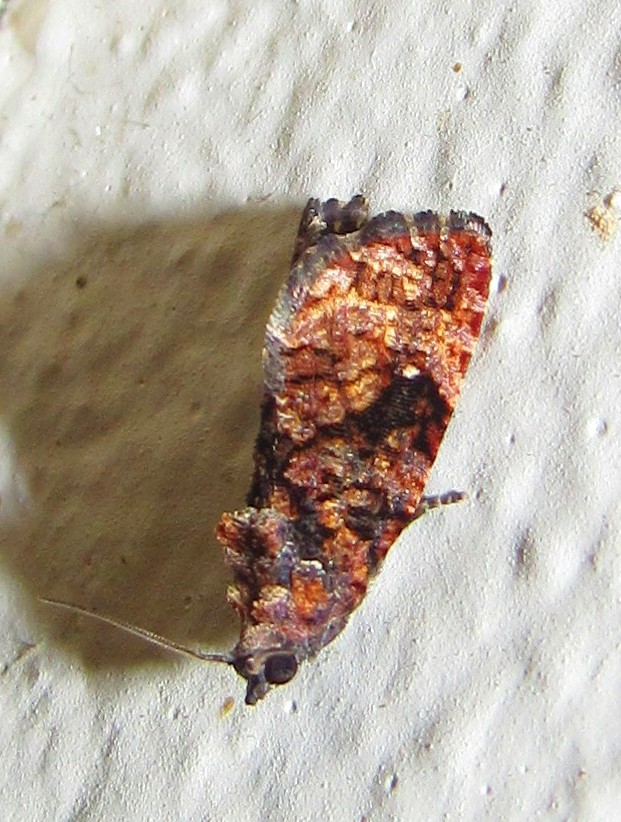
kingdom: Animalia
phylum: Arthropoda
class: Insecta
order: Lepidoptera
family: Tortricidae
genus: Gymnandrosoma
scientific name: Gymnandrosoma aurantianum
